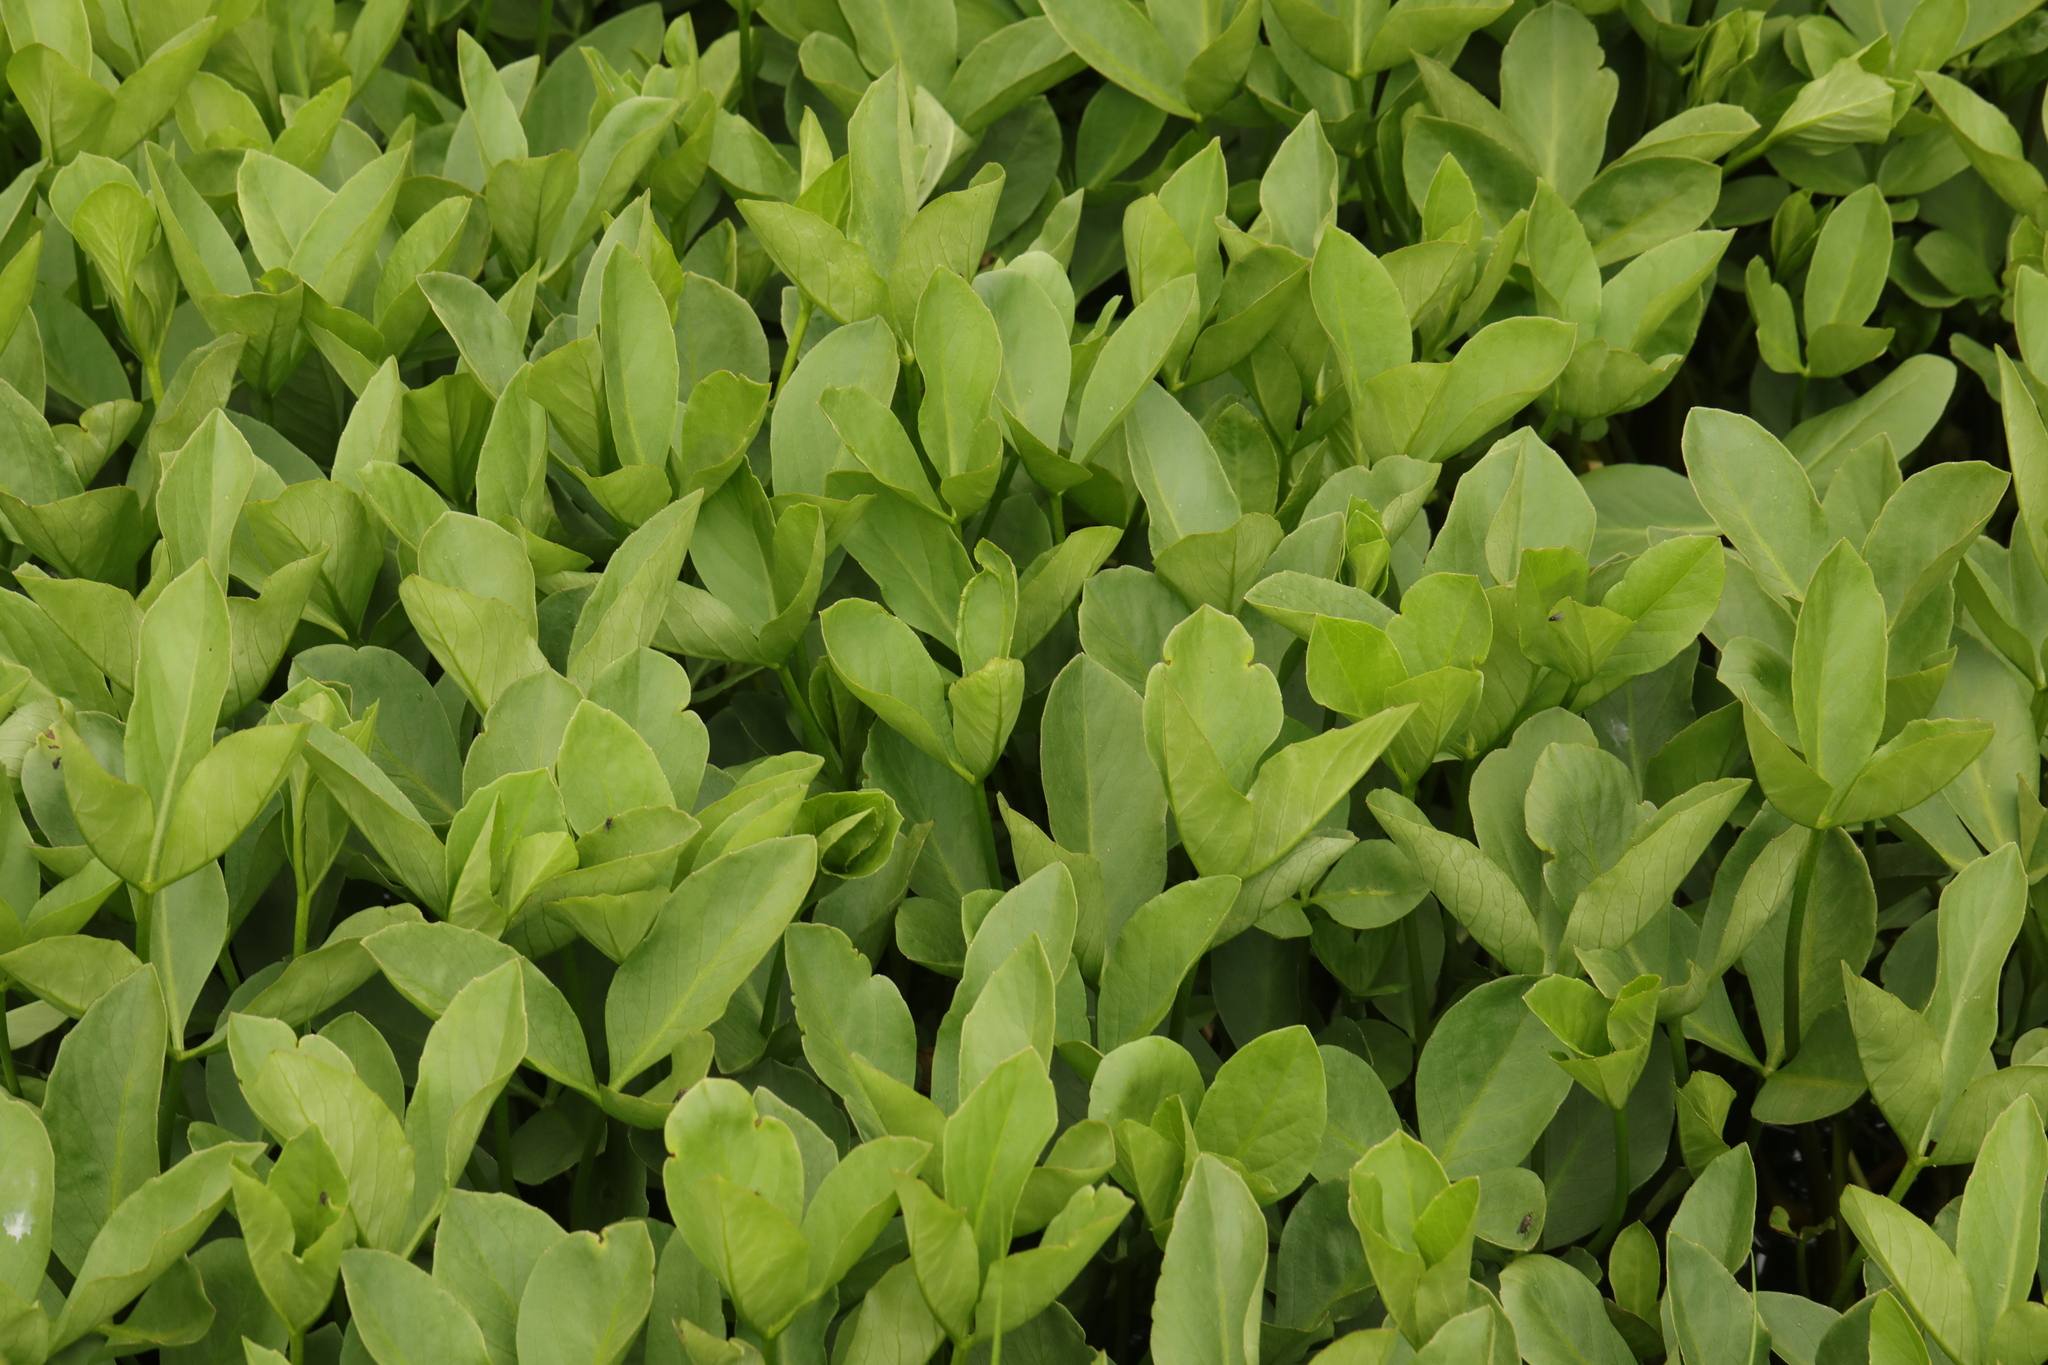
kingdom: Plantae
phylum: Tracheophyta
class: Magnoliopsida
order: Asterales
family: Menyanthaceae
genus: Menyanthes
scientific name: Menyanthes trifoliata
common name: Bogbean
